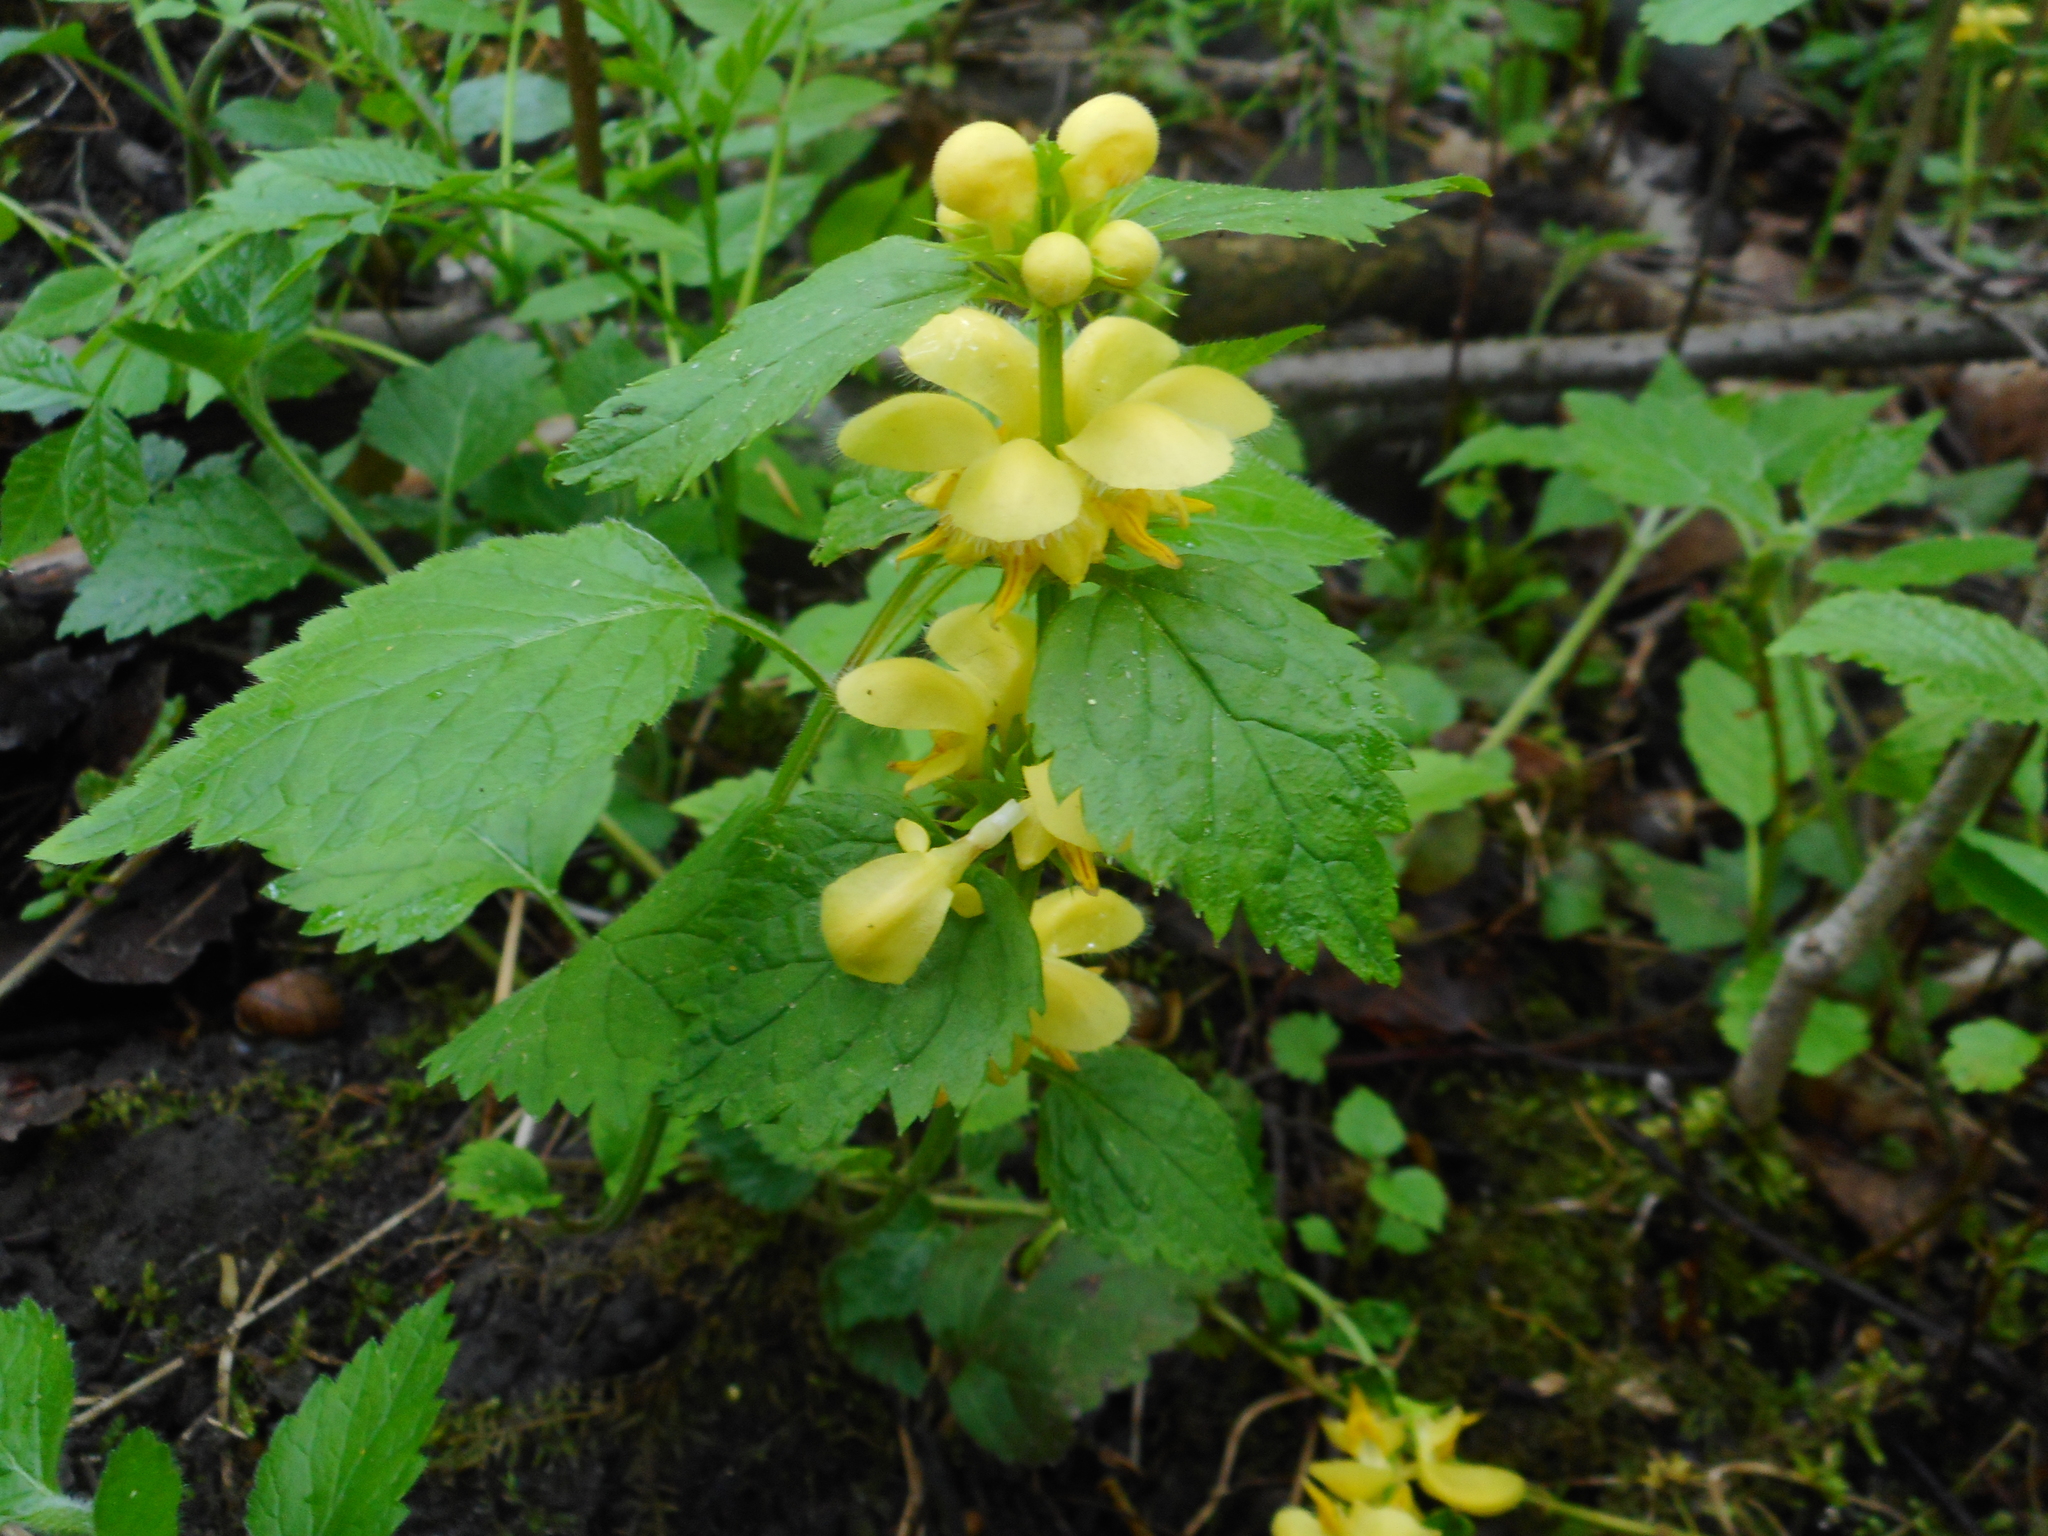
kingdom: Plantae
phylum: Tracheophyta
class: Magnoliopsida
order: Lamiales
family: Lamiaceae
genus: Lamium
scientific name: Lamium galeobdolon
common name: Yellow archangel
